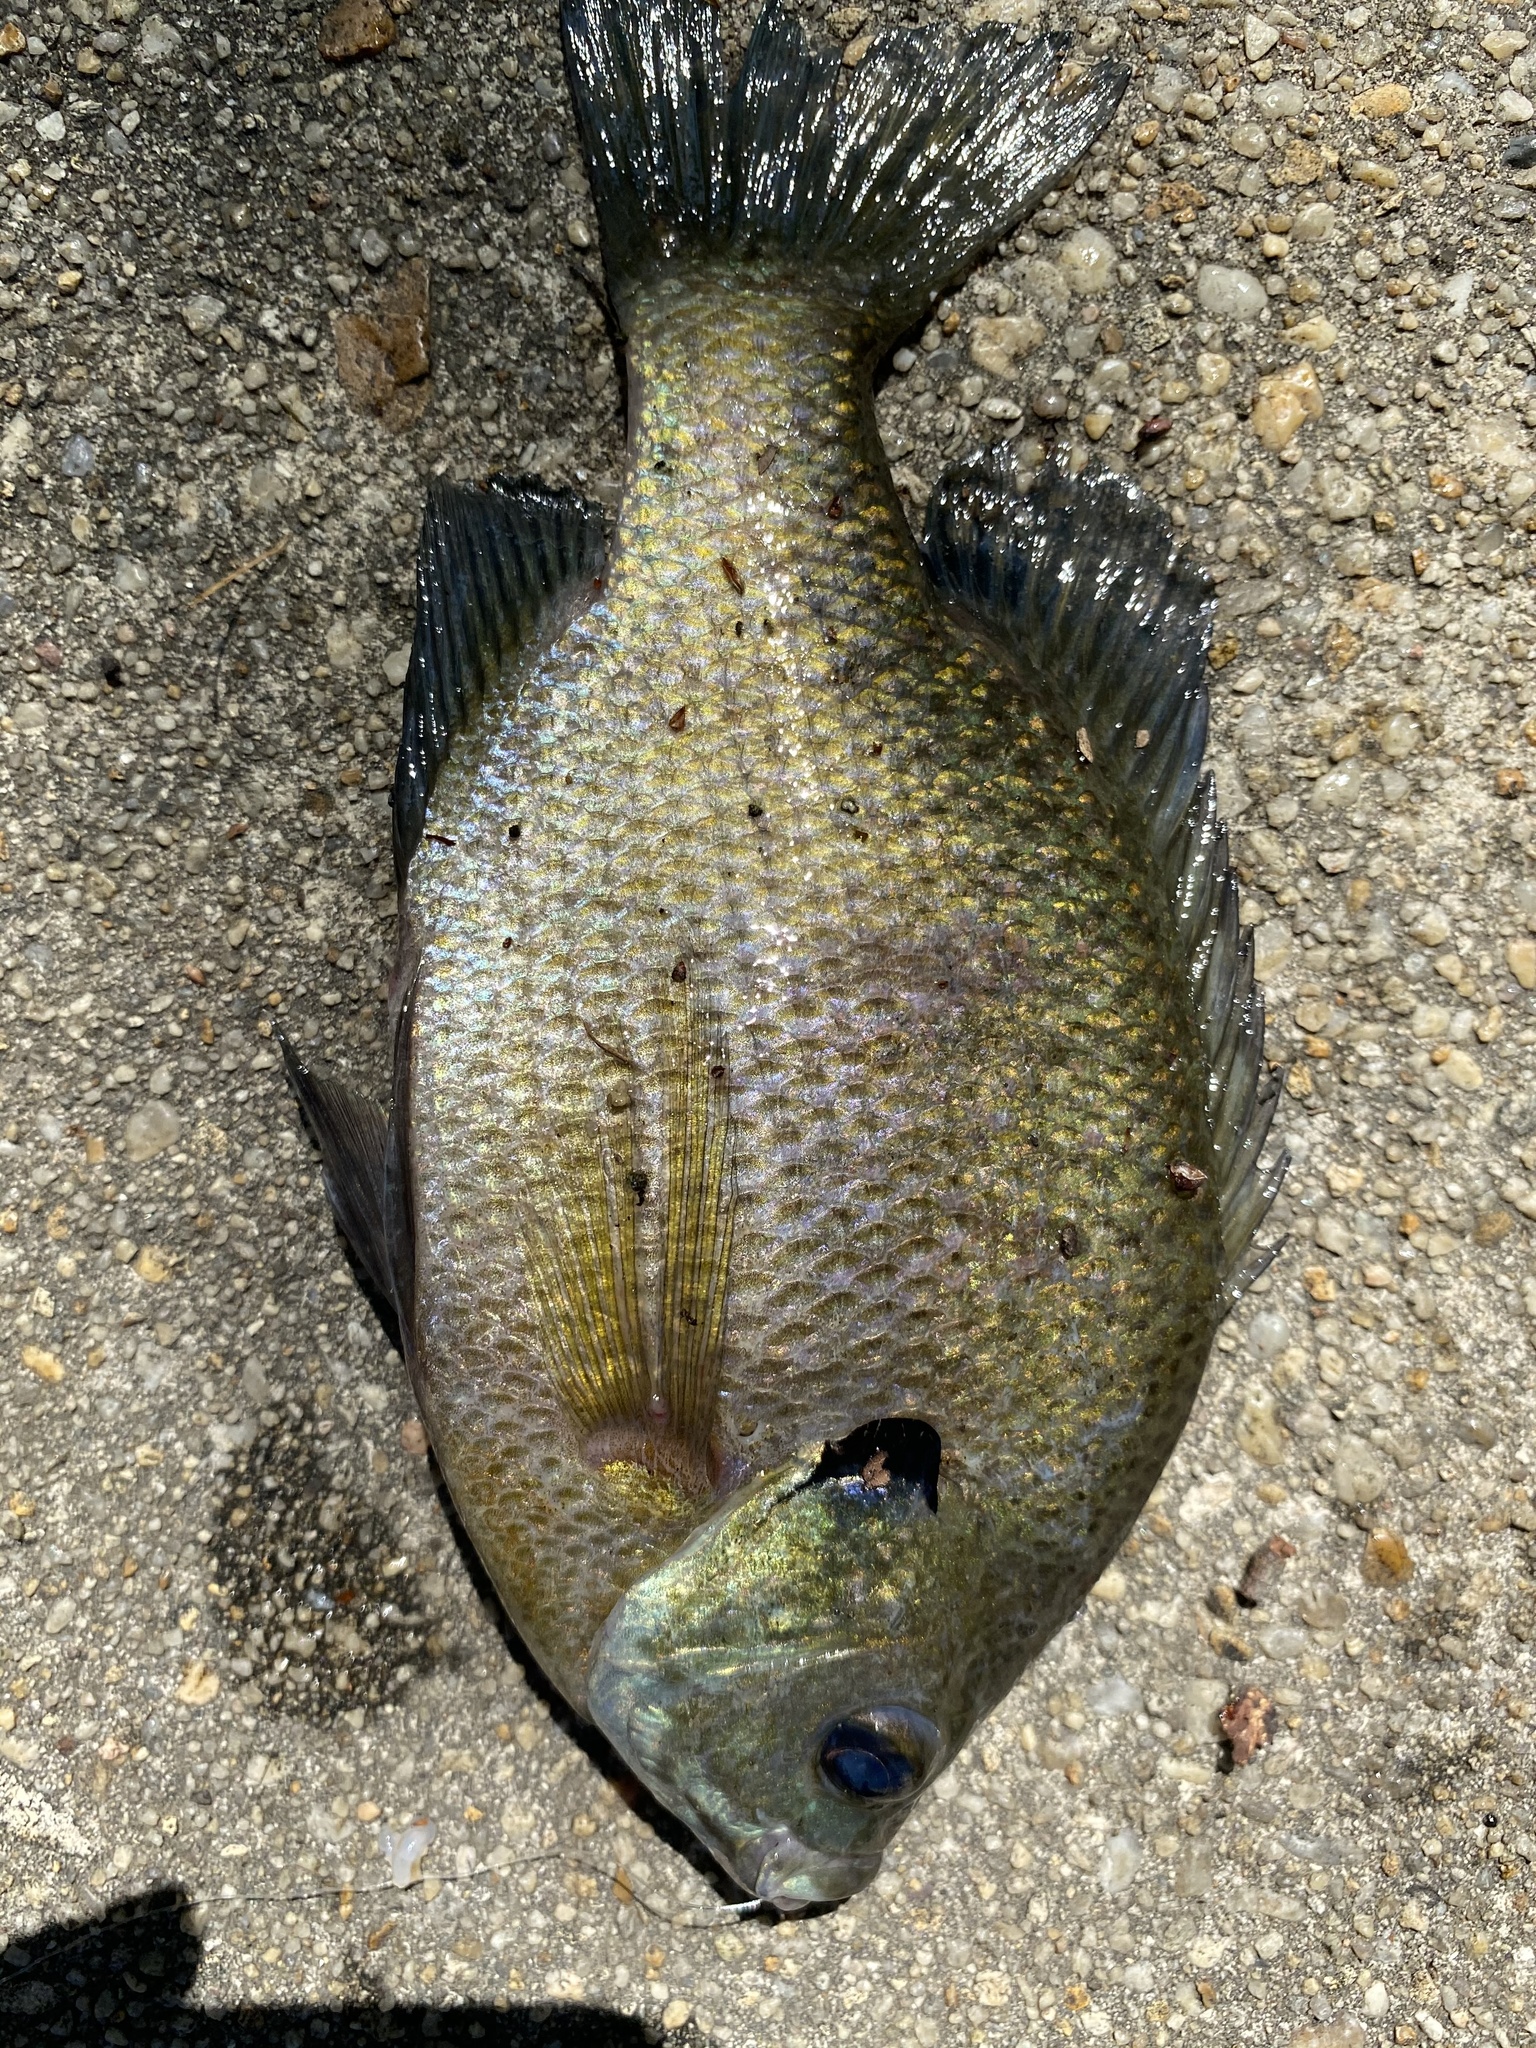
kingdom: Animalia
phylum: Chordata
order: Perciformes
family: Centrarchidae
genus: Lepomis
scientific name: Lepomis macrochirus
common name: Bluegill
